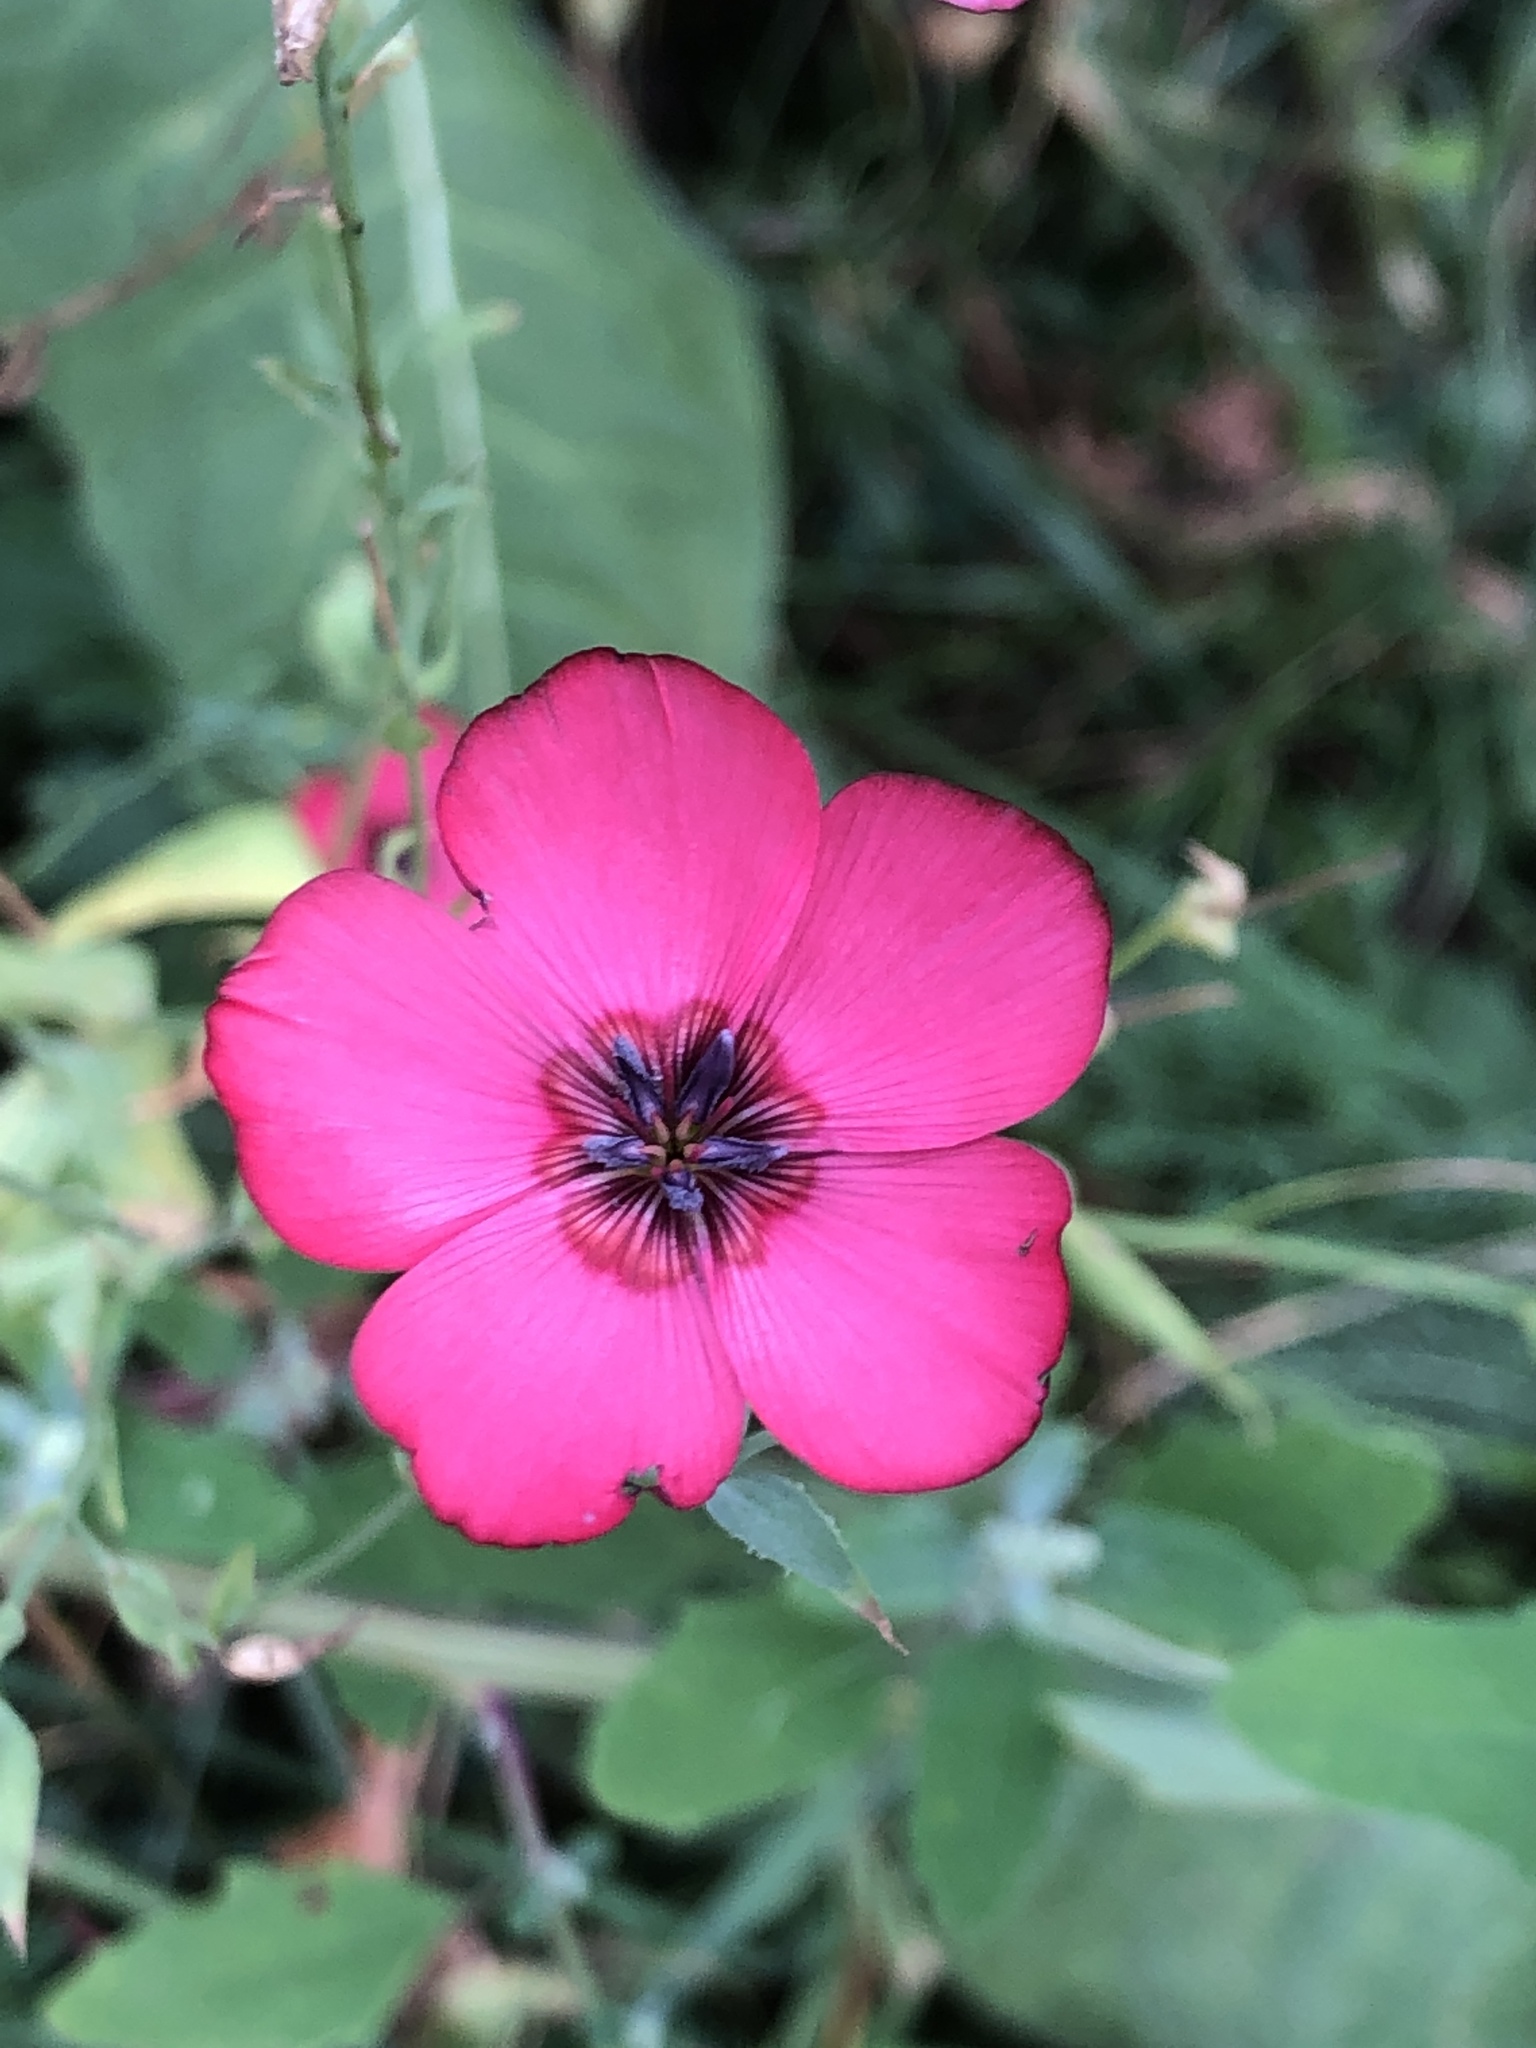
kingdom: Plantae
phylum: Tracheophyta
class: Magnoliopsida
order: Malpighiales
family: Linaceae
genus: Linum
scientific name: Linum grandiflorum
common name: Crimson flax
